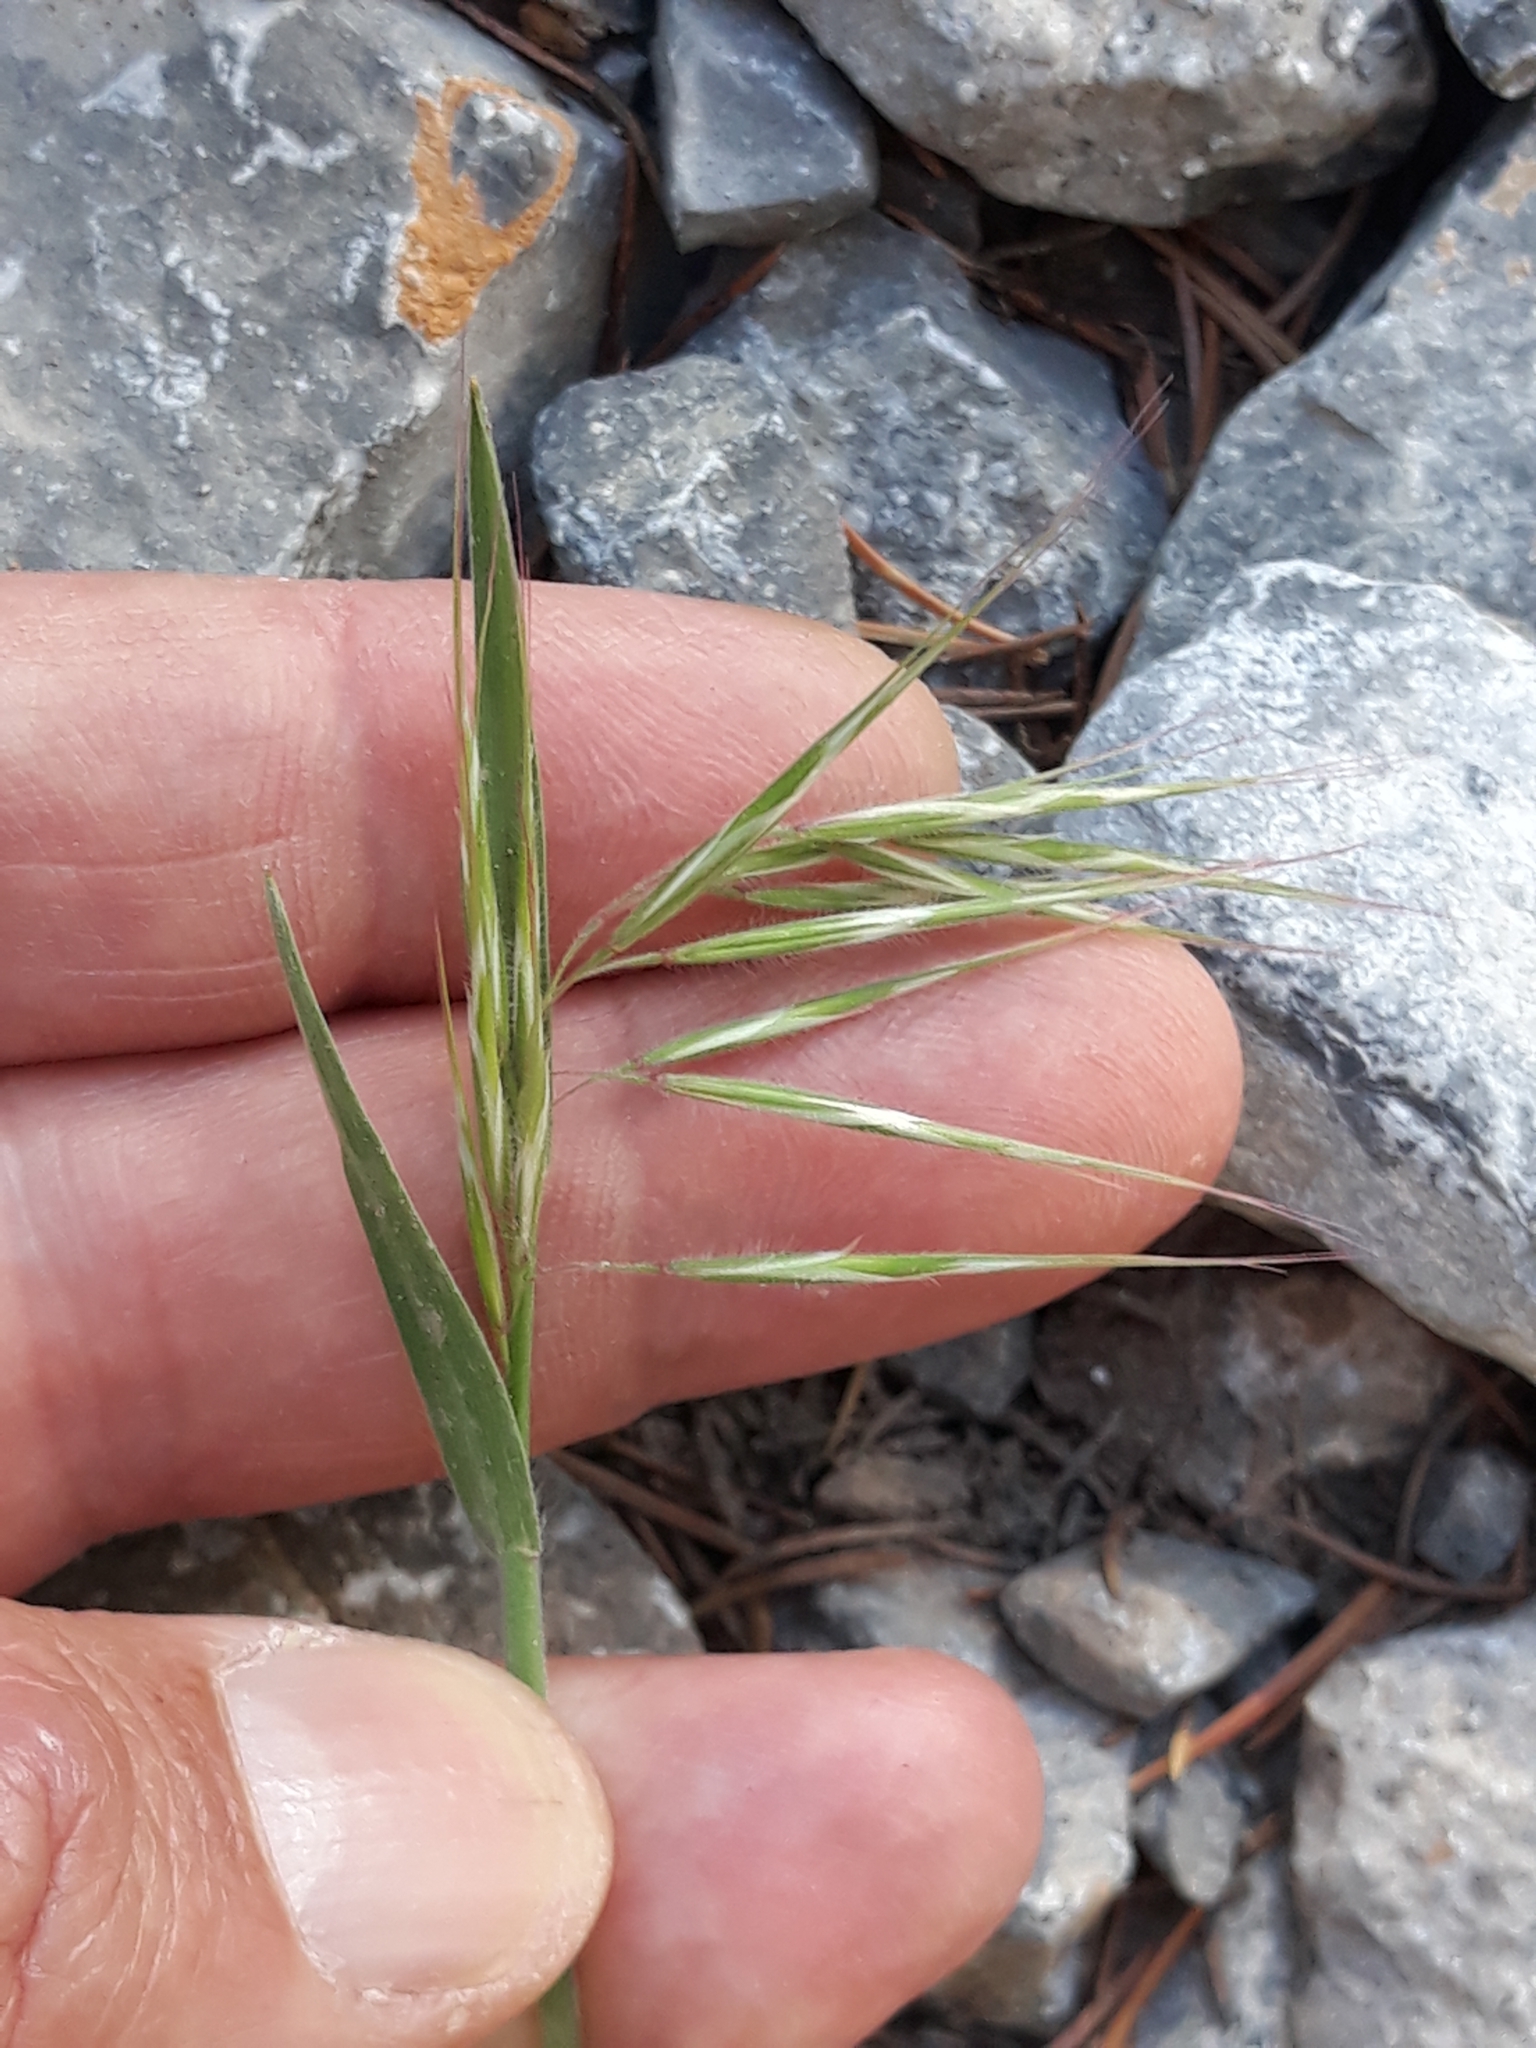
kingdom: Plantae
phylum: Tracheophyta
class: Liliopsida
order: Poales
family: Poaceae
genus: Bromus
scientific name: Bromus tectorum
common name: Cheatgrass
